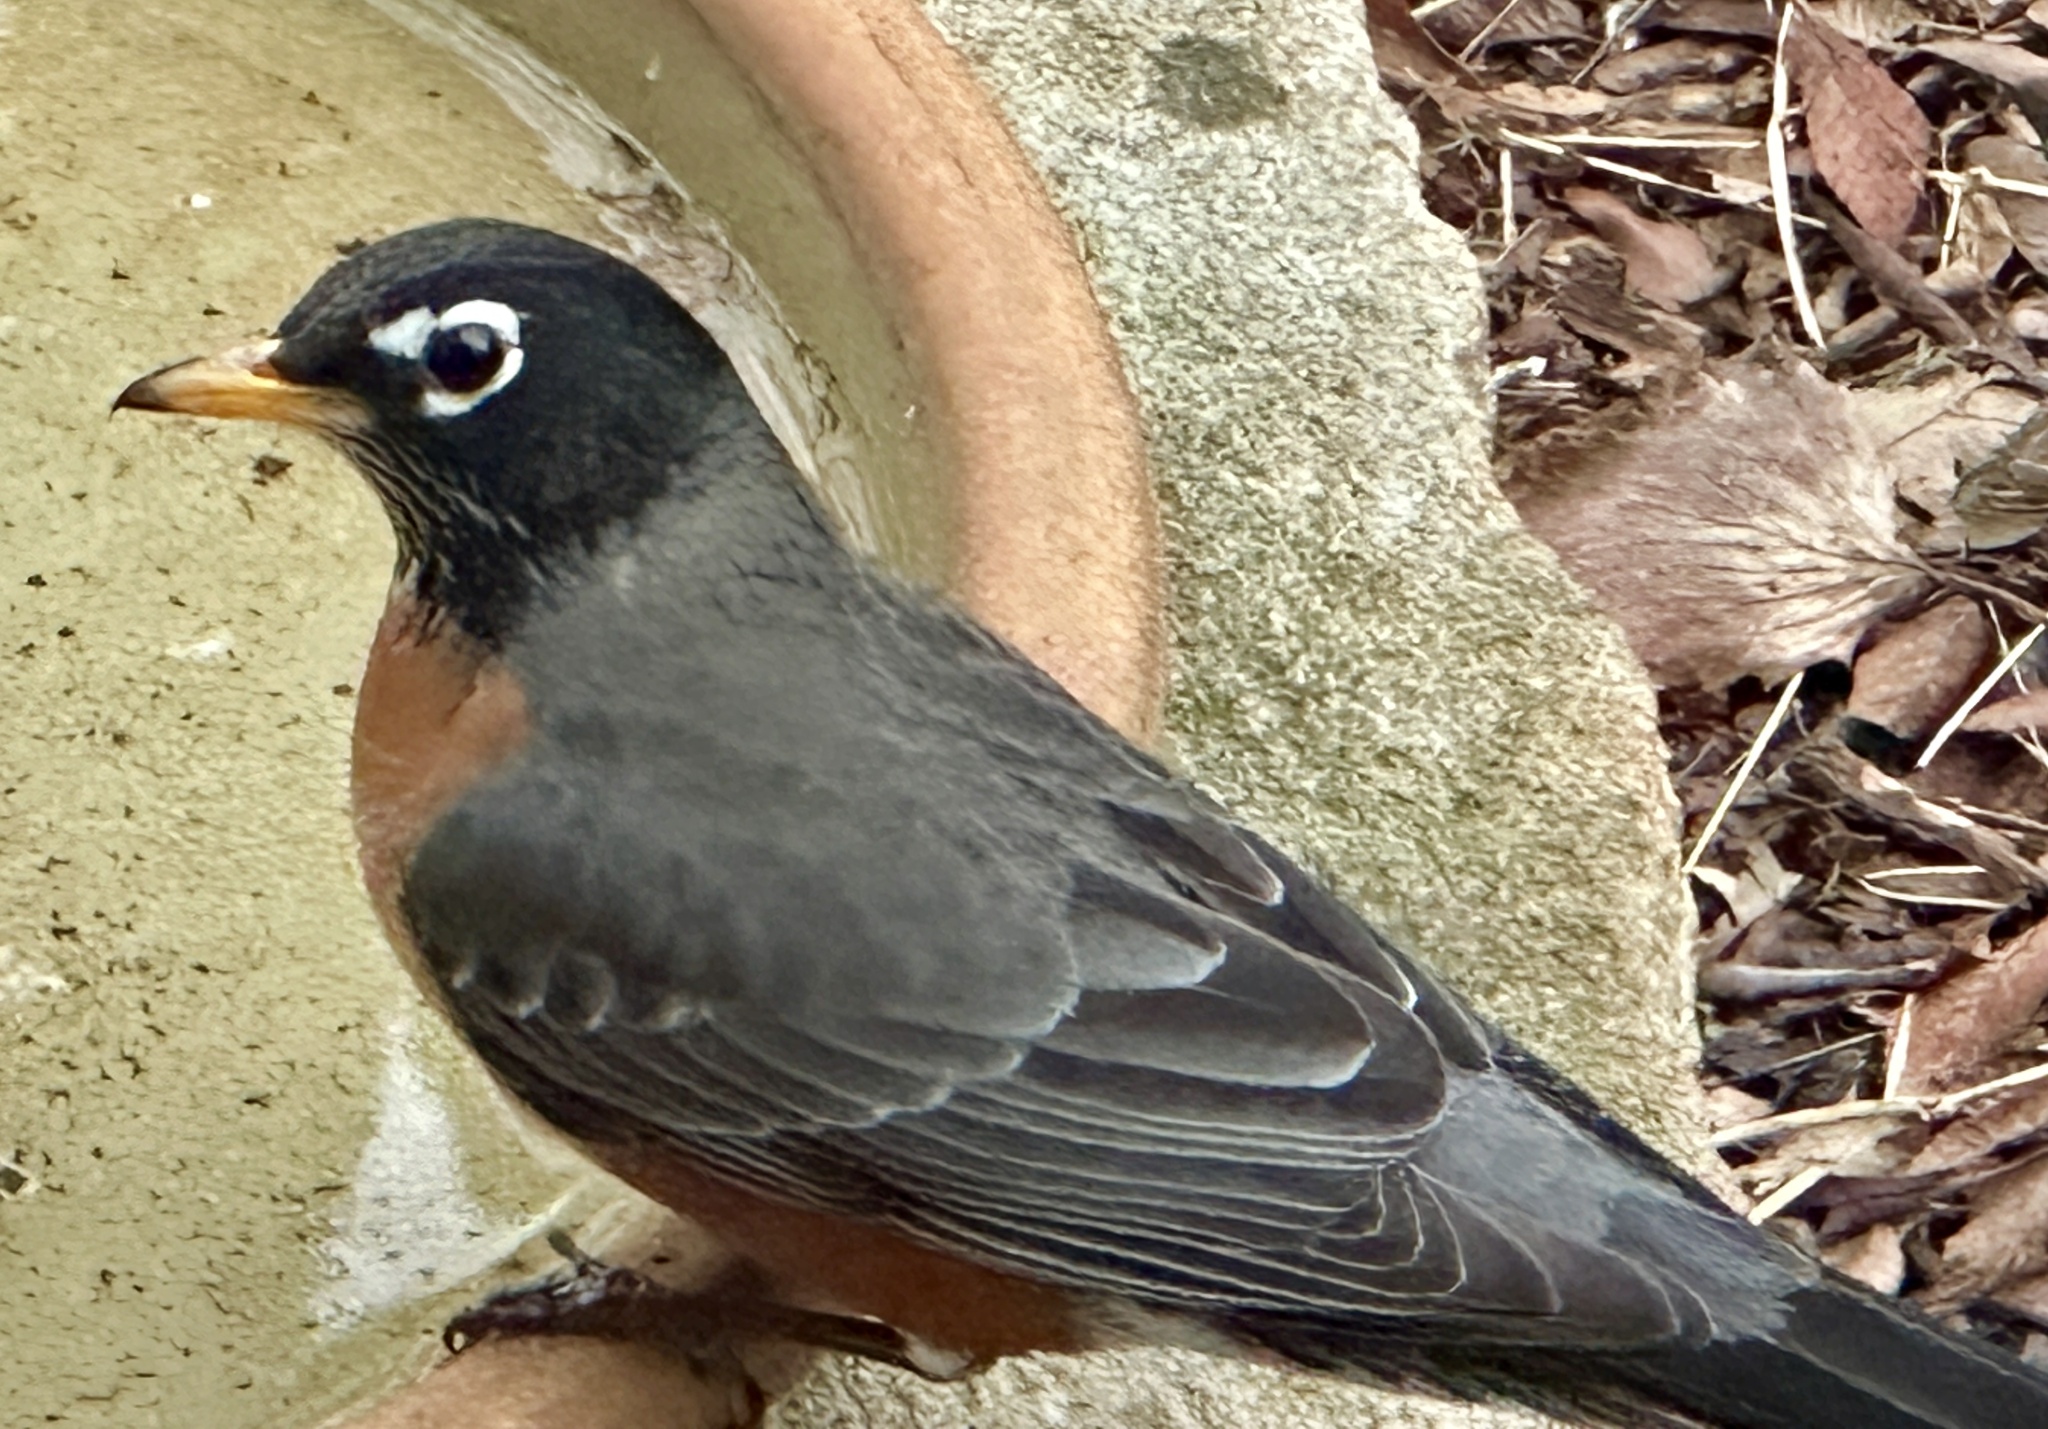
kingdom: Animalia
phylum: Chordata
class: Aves
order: Passeriformes
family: Turdidae
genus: Turdus
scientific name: Turdus migratorius
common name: American robin
